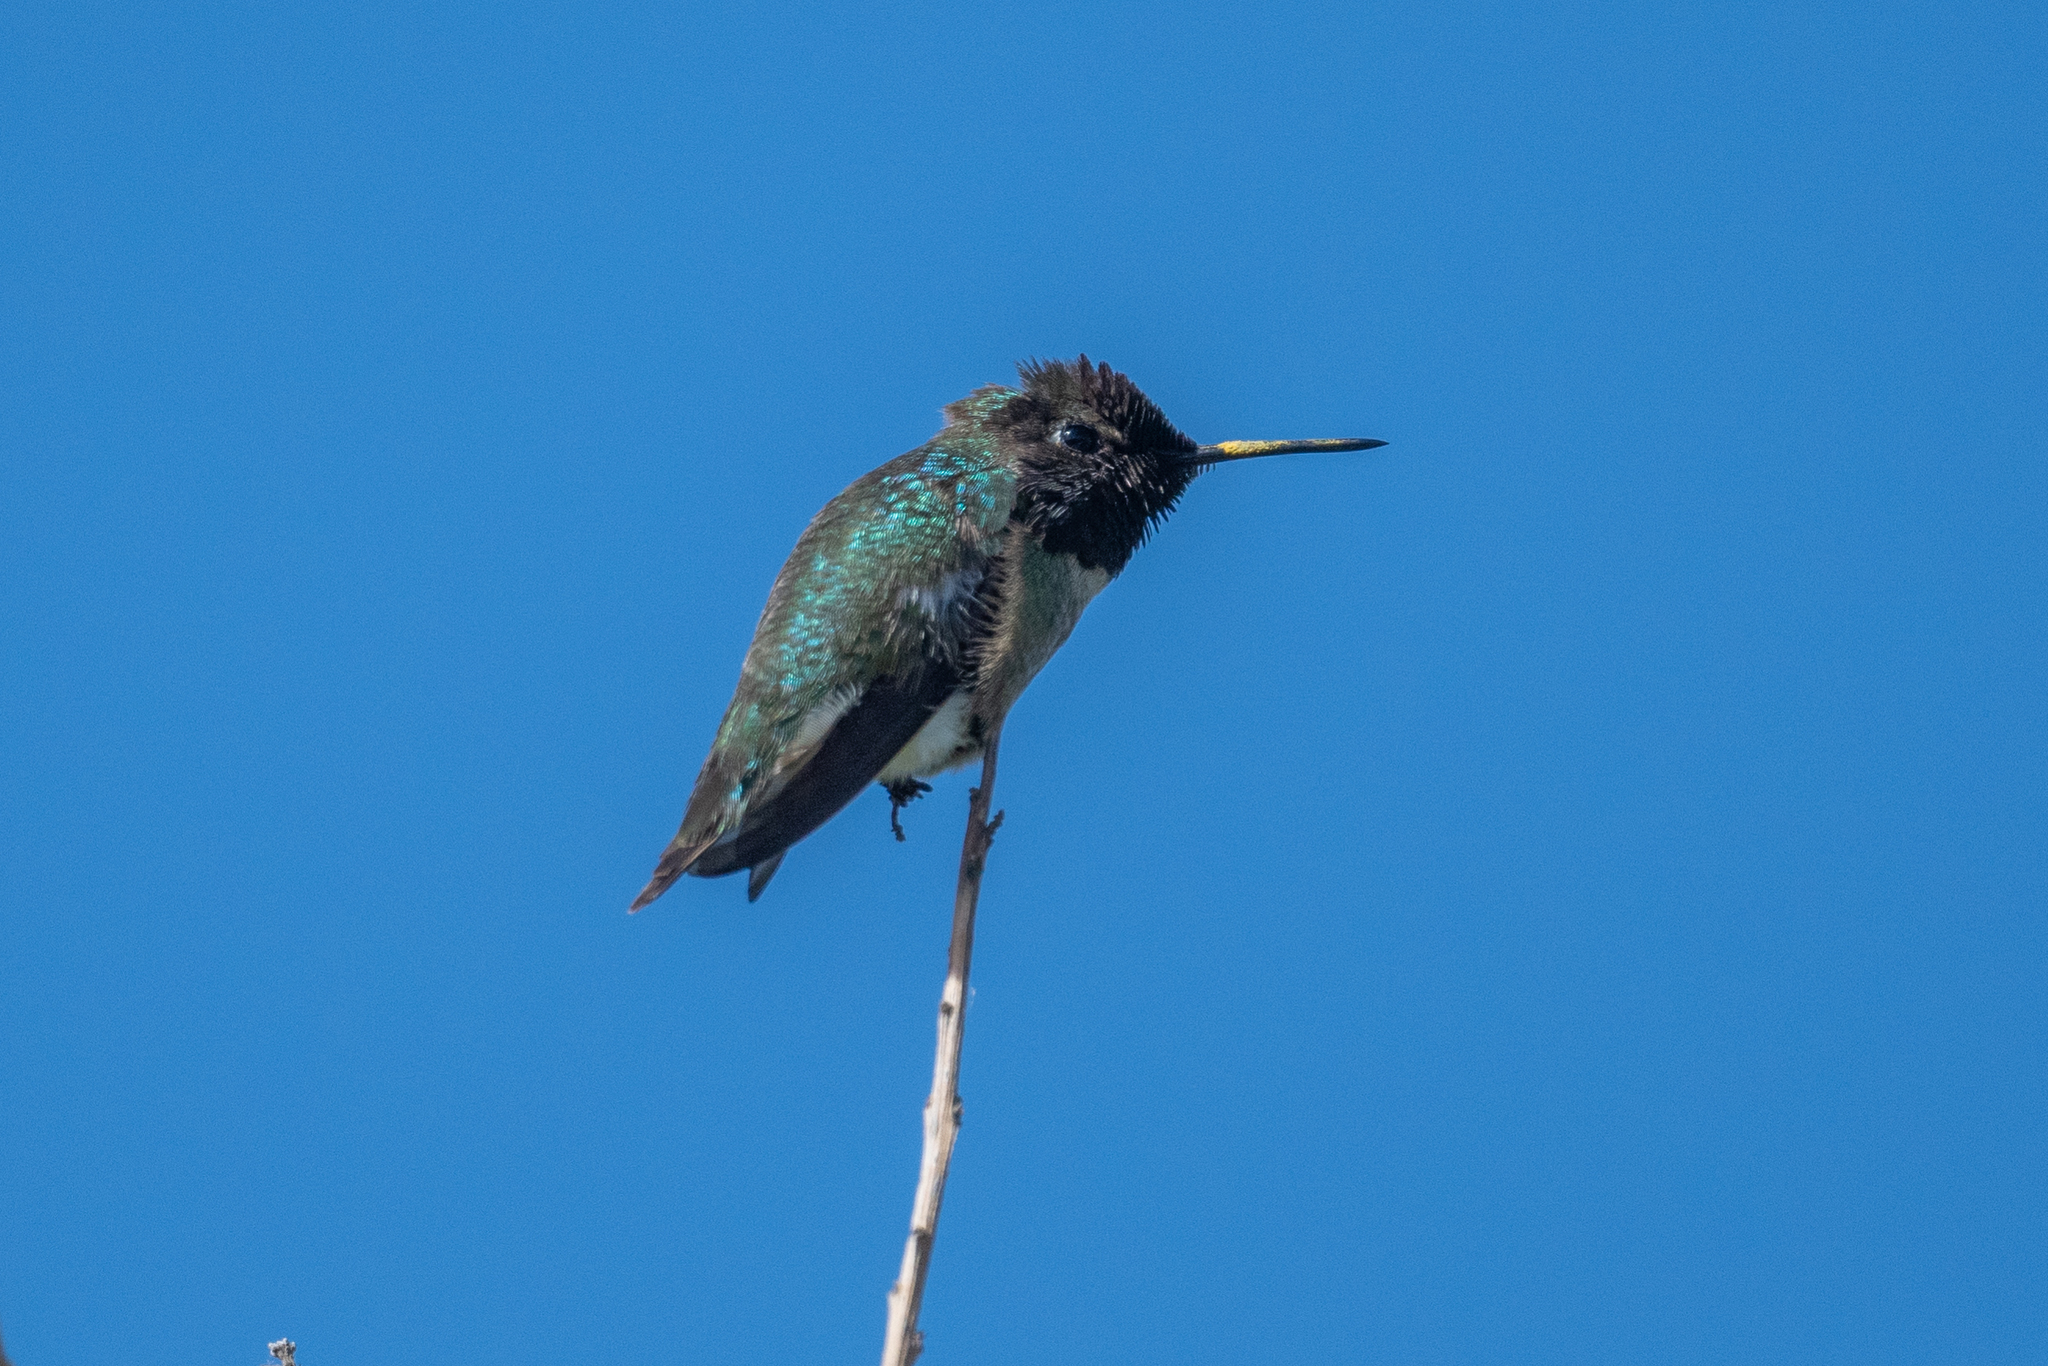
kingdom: Animalia
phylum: Chordata
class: Aves
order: Apodiformes
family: Trochilidae
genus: Calypte
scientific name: Calypte anna
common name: Anna's hummingbird
